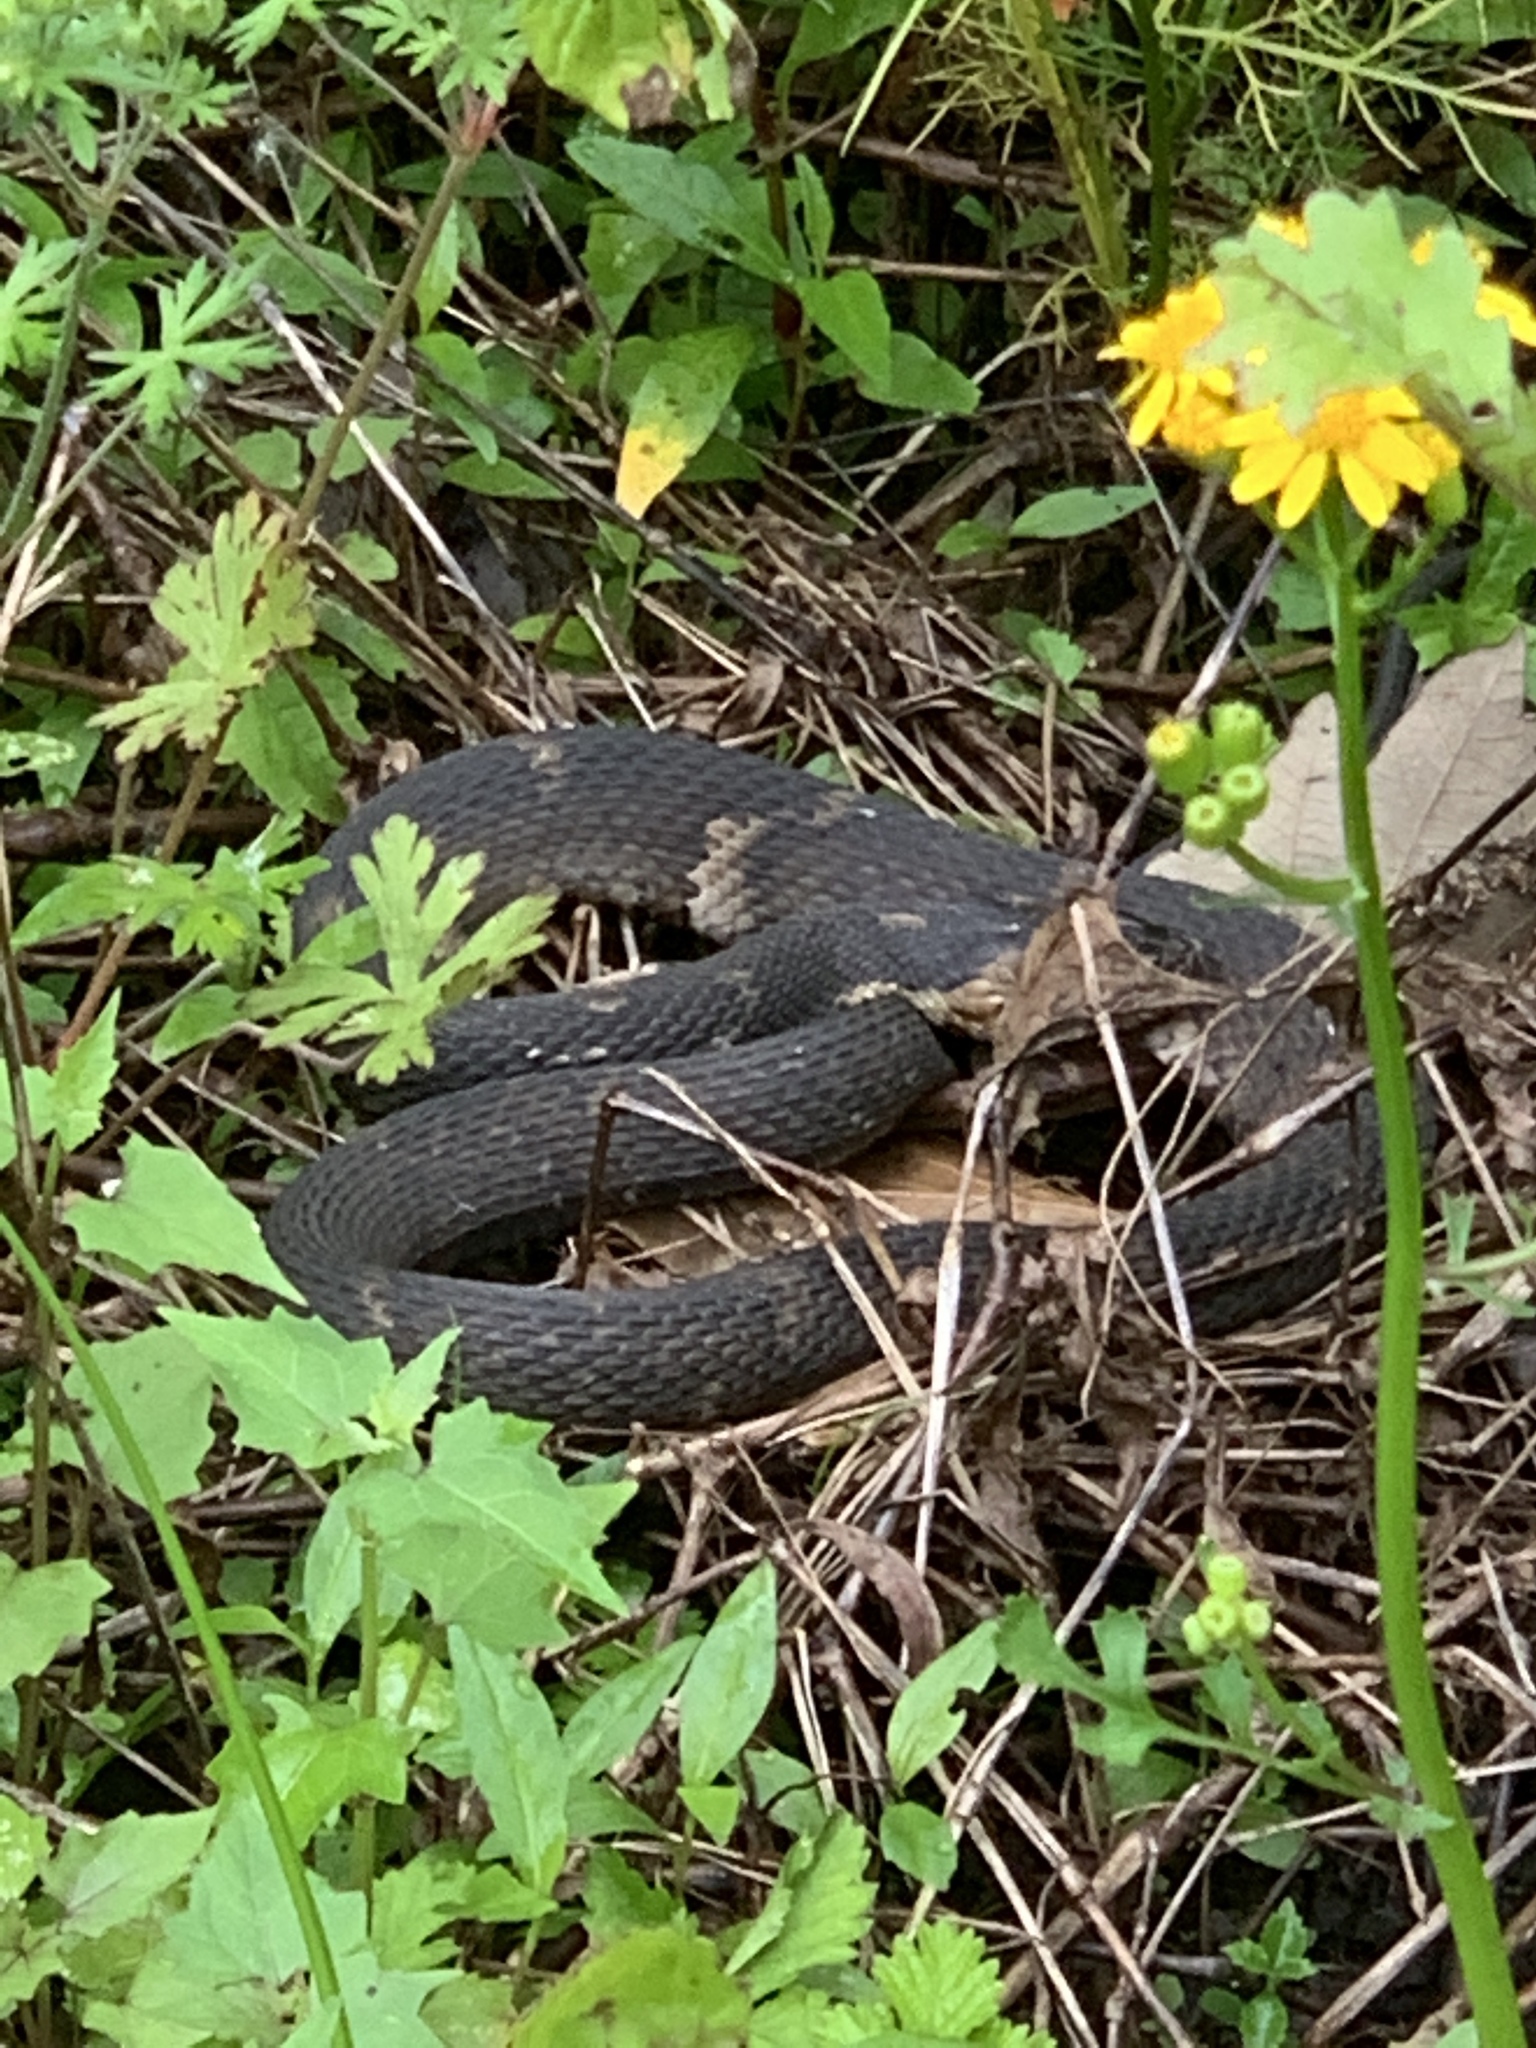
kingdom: Animalia
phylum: Chordata
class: Squamata
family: Colubridae
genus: Nerodia
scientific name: Nerodia fasciata
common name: Southern water snake
